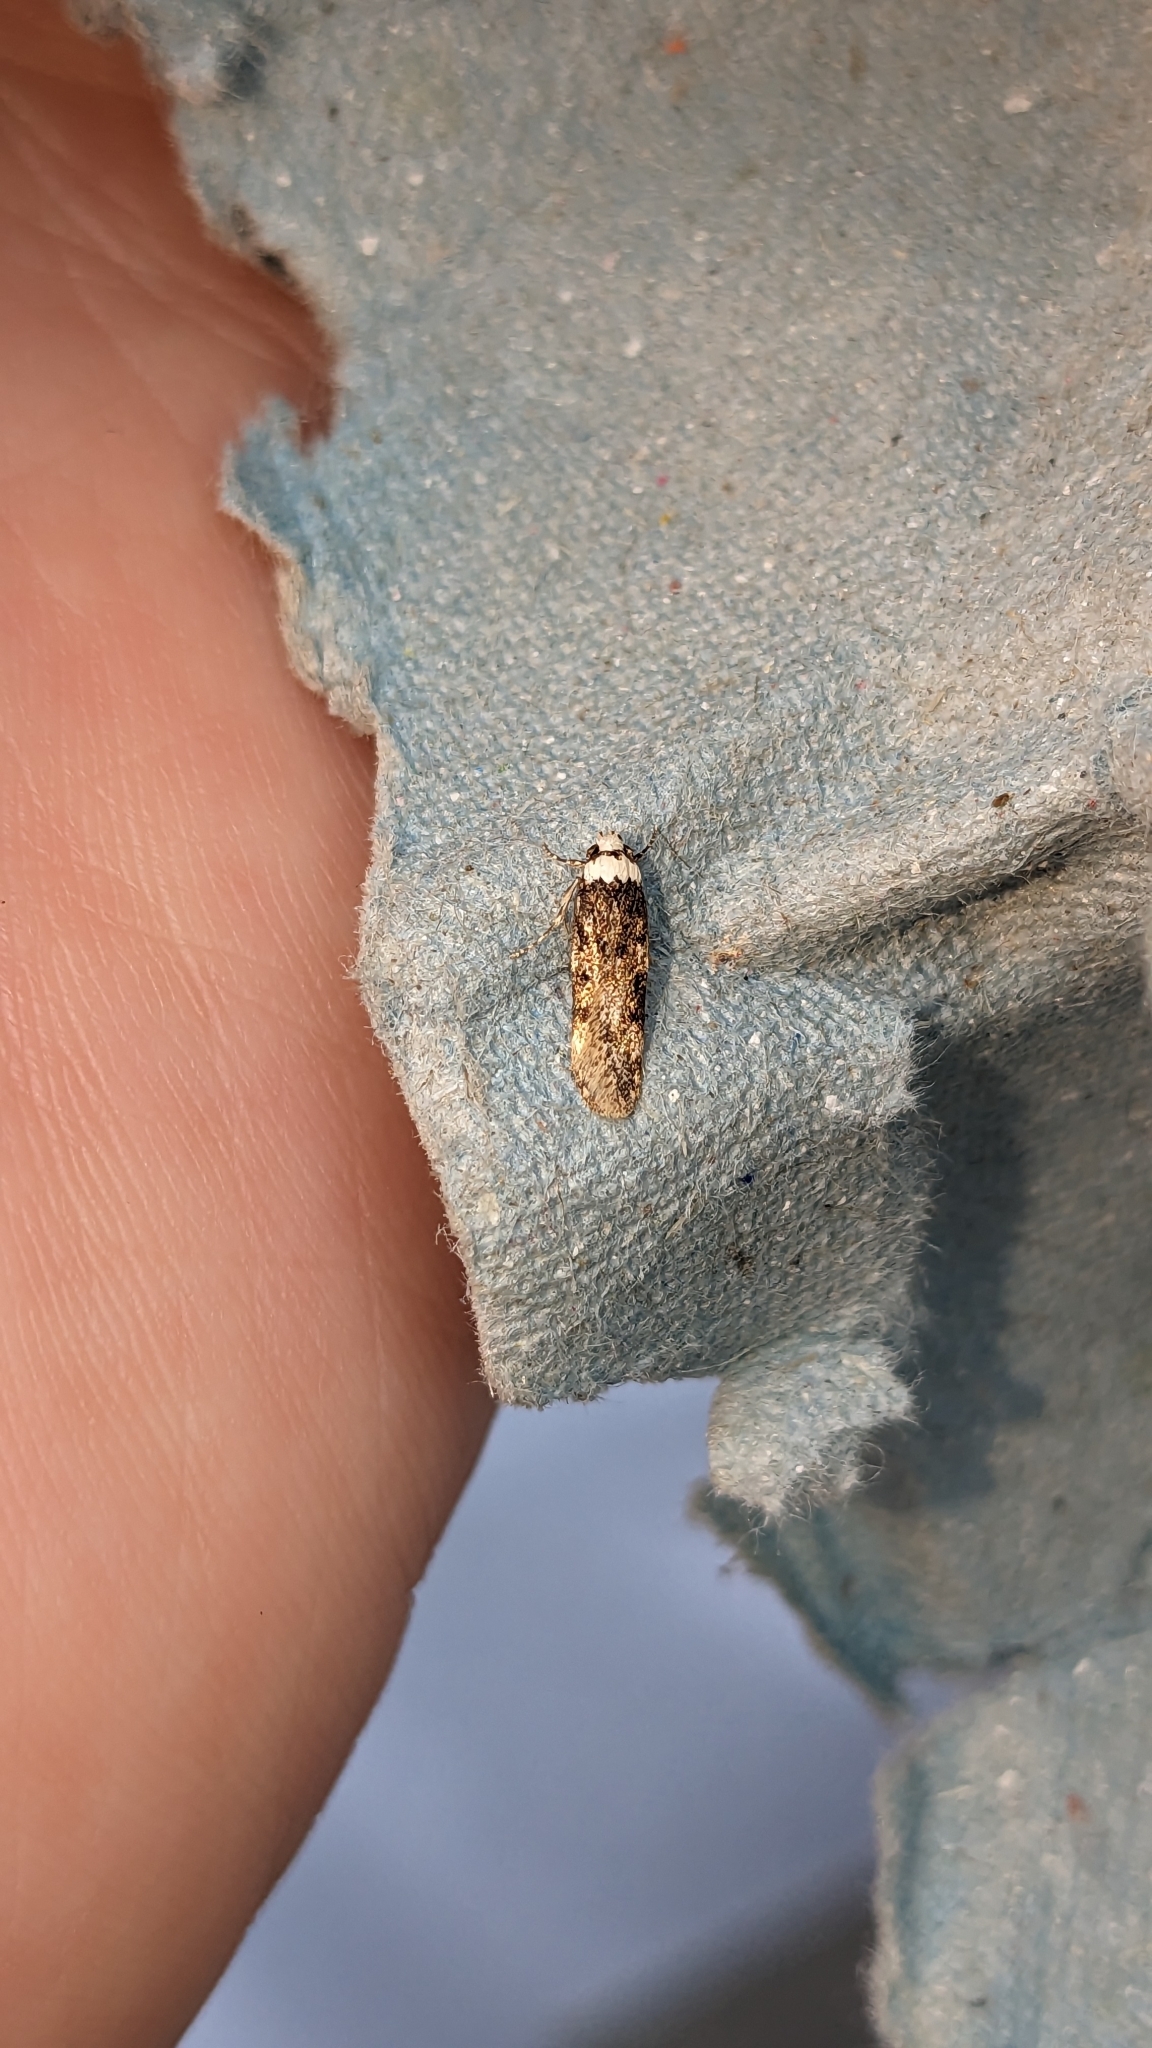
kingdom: Animalia
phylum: Arthropoda
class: Insecta
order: Lepidoptera
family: Oecophoridae
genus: Endrosis
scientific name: Endrosis sarcitrella
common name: White-shouldered house moth
